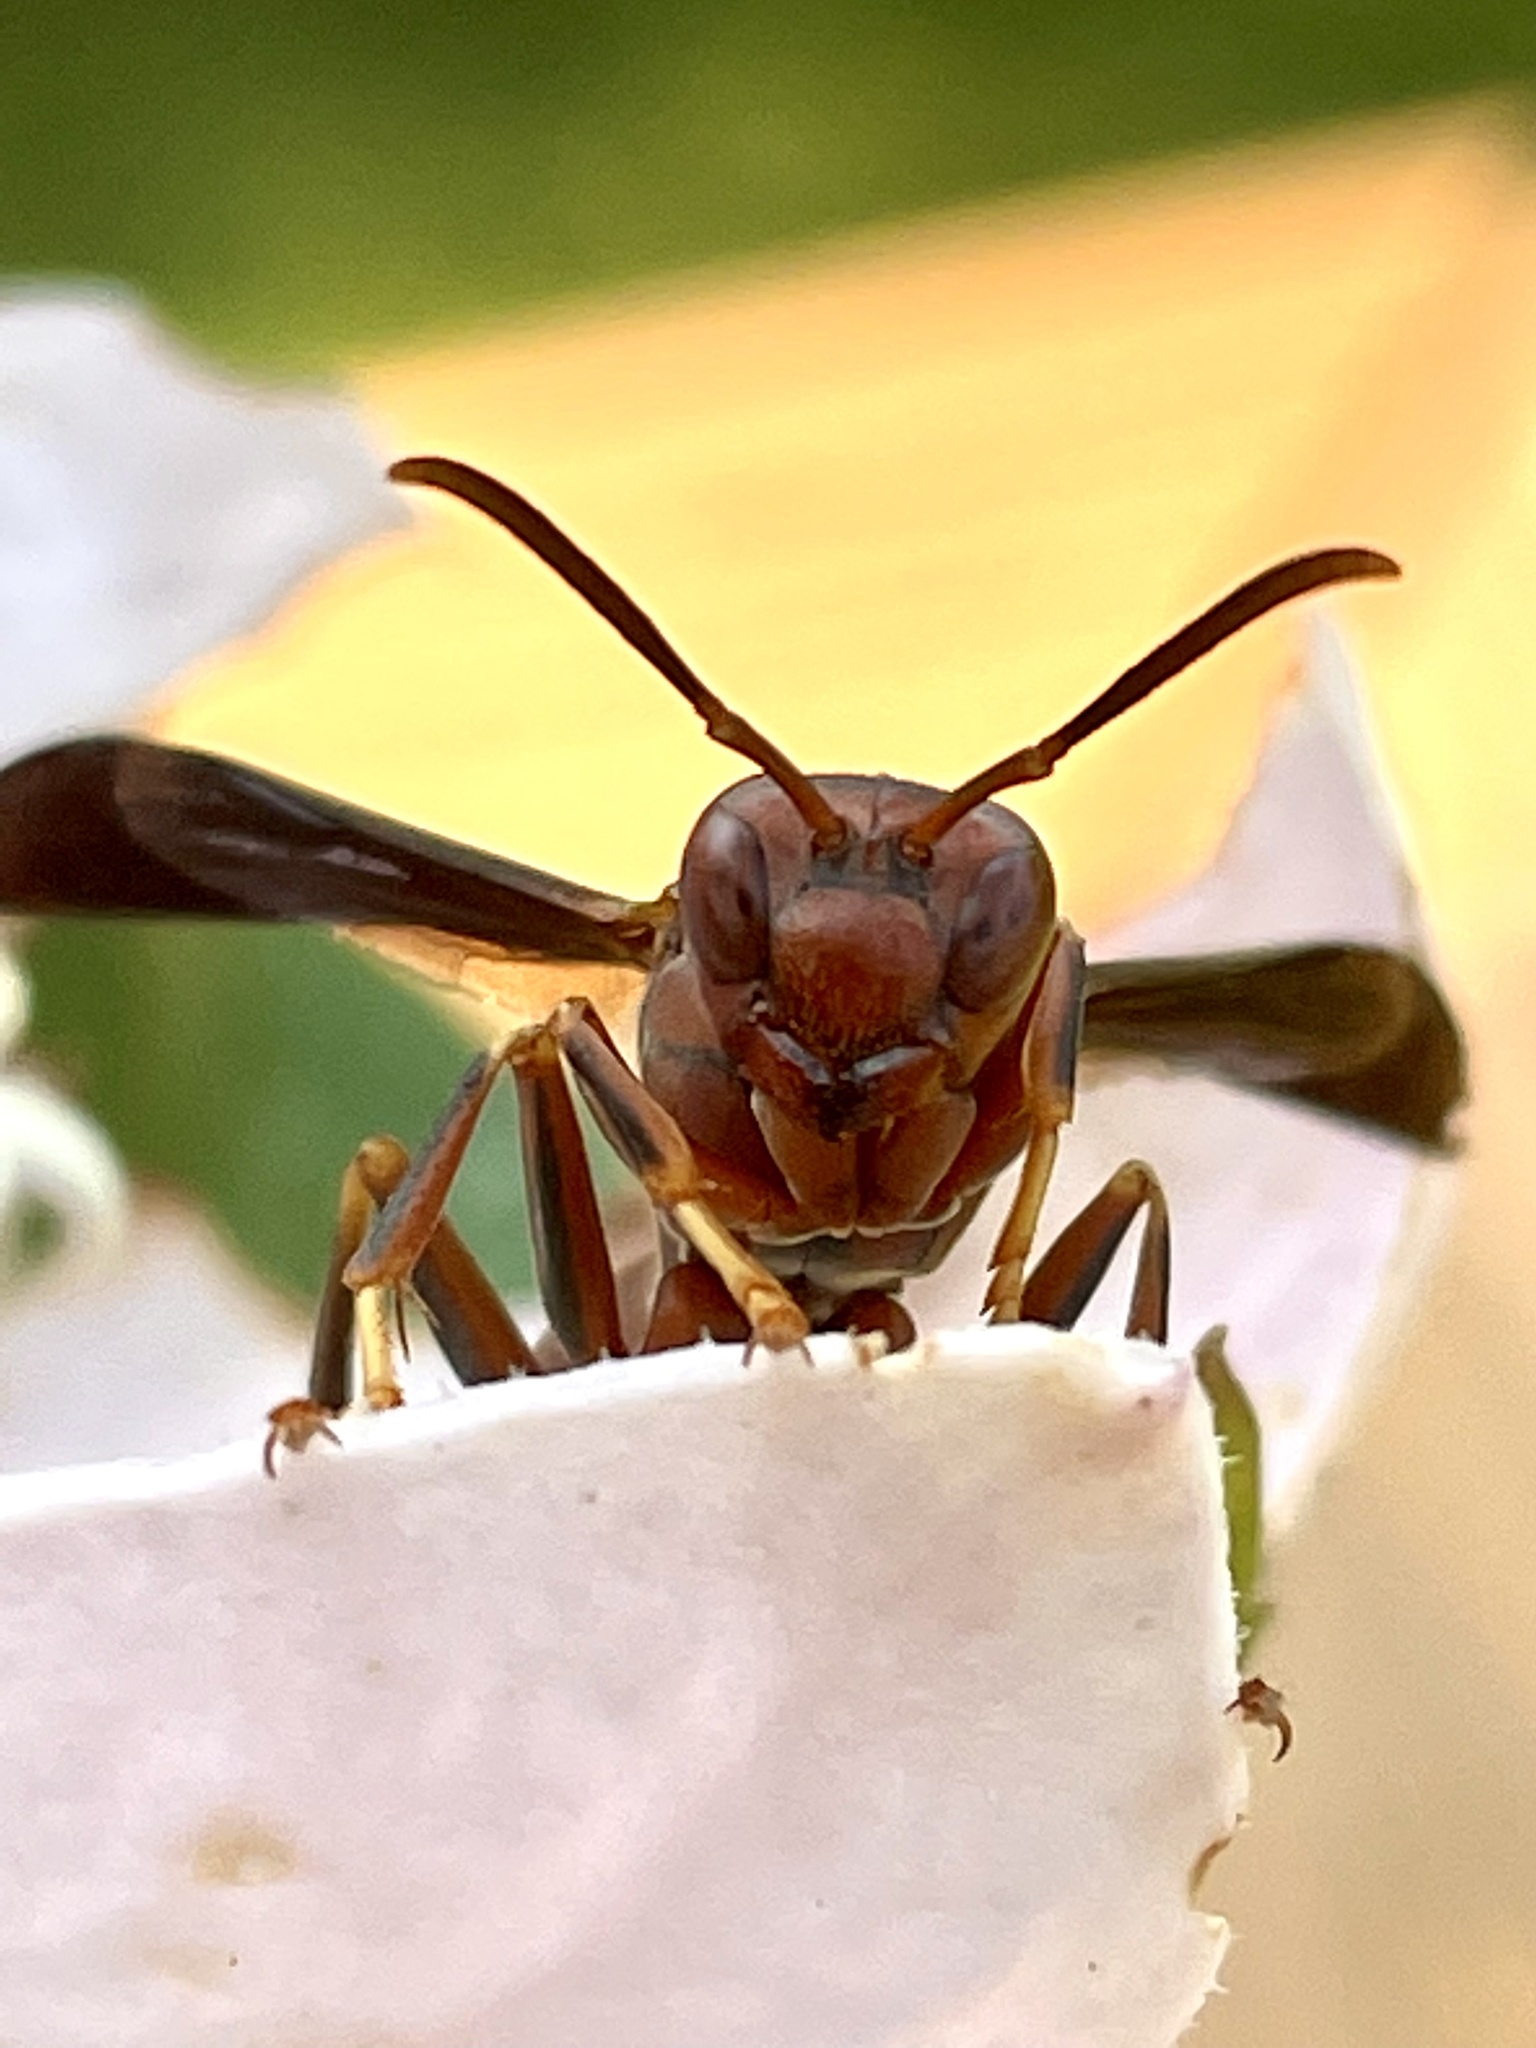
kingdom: Animalia
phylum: Arthropoda
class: Insecta
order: Hymenoptera
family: Eumenidae
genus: Polistes
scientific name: Polistes metricus
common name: Metric paper wasp
